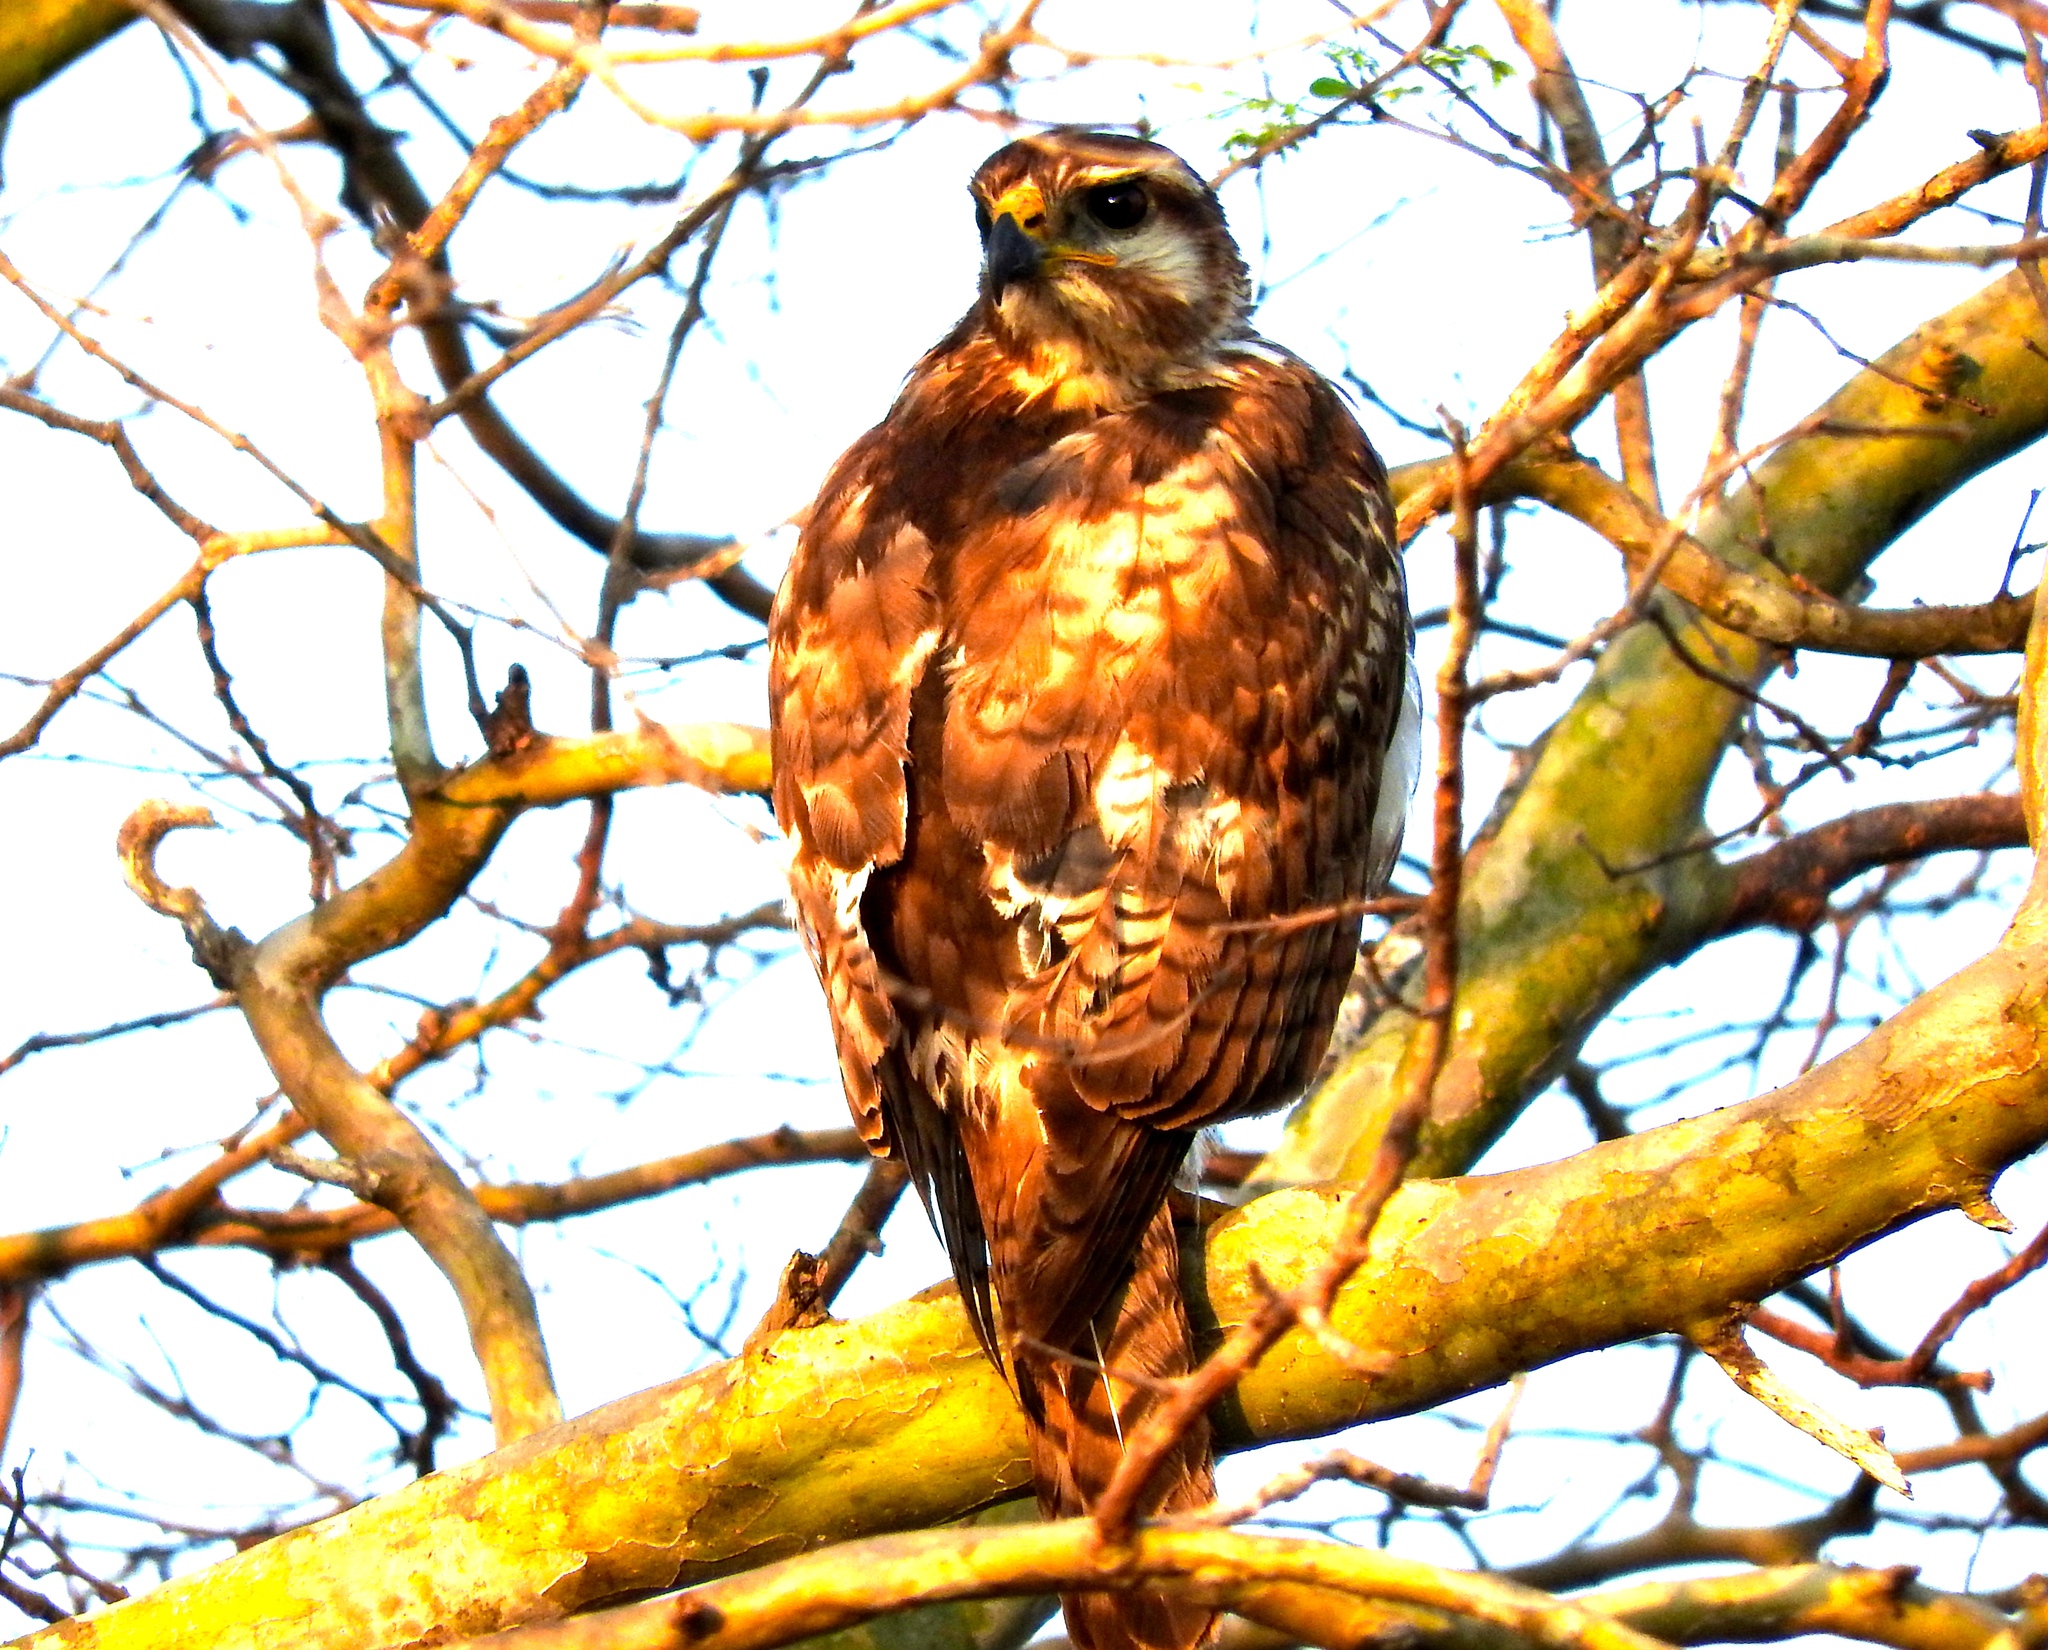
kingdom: Animalia
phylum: Chordata
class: Aves
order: Accipitriformes
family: Accipitridae
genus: Buteo
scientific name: Buteo nitidus
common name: Grey-lined hawk
